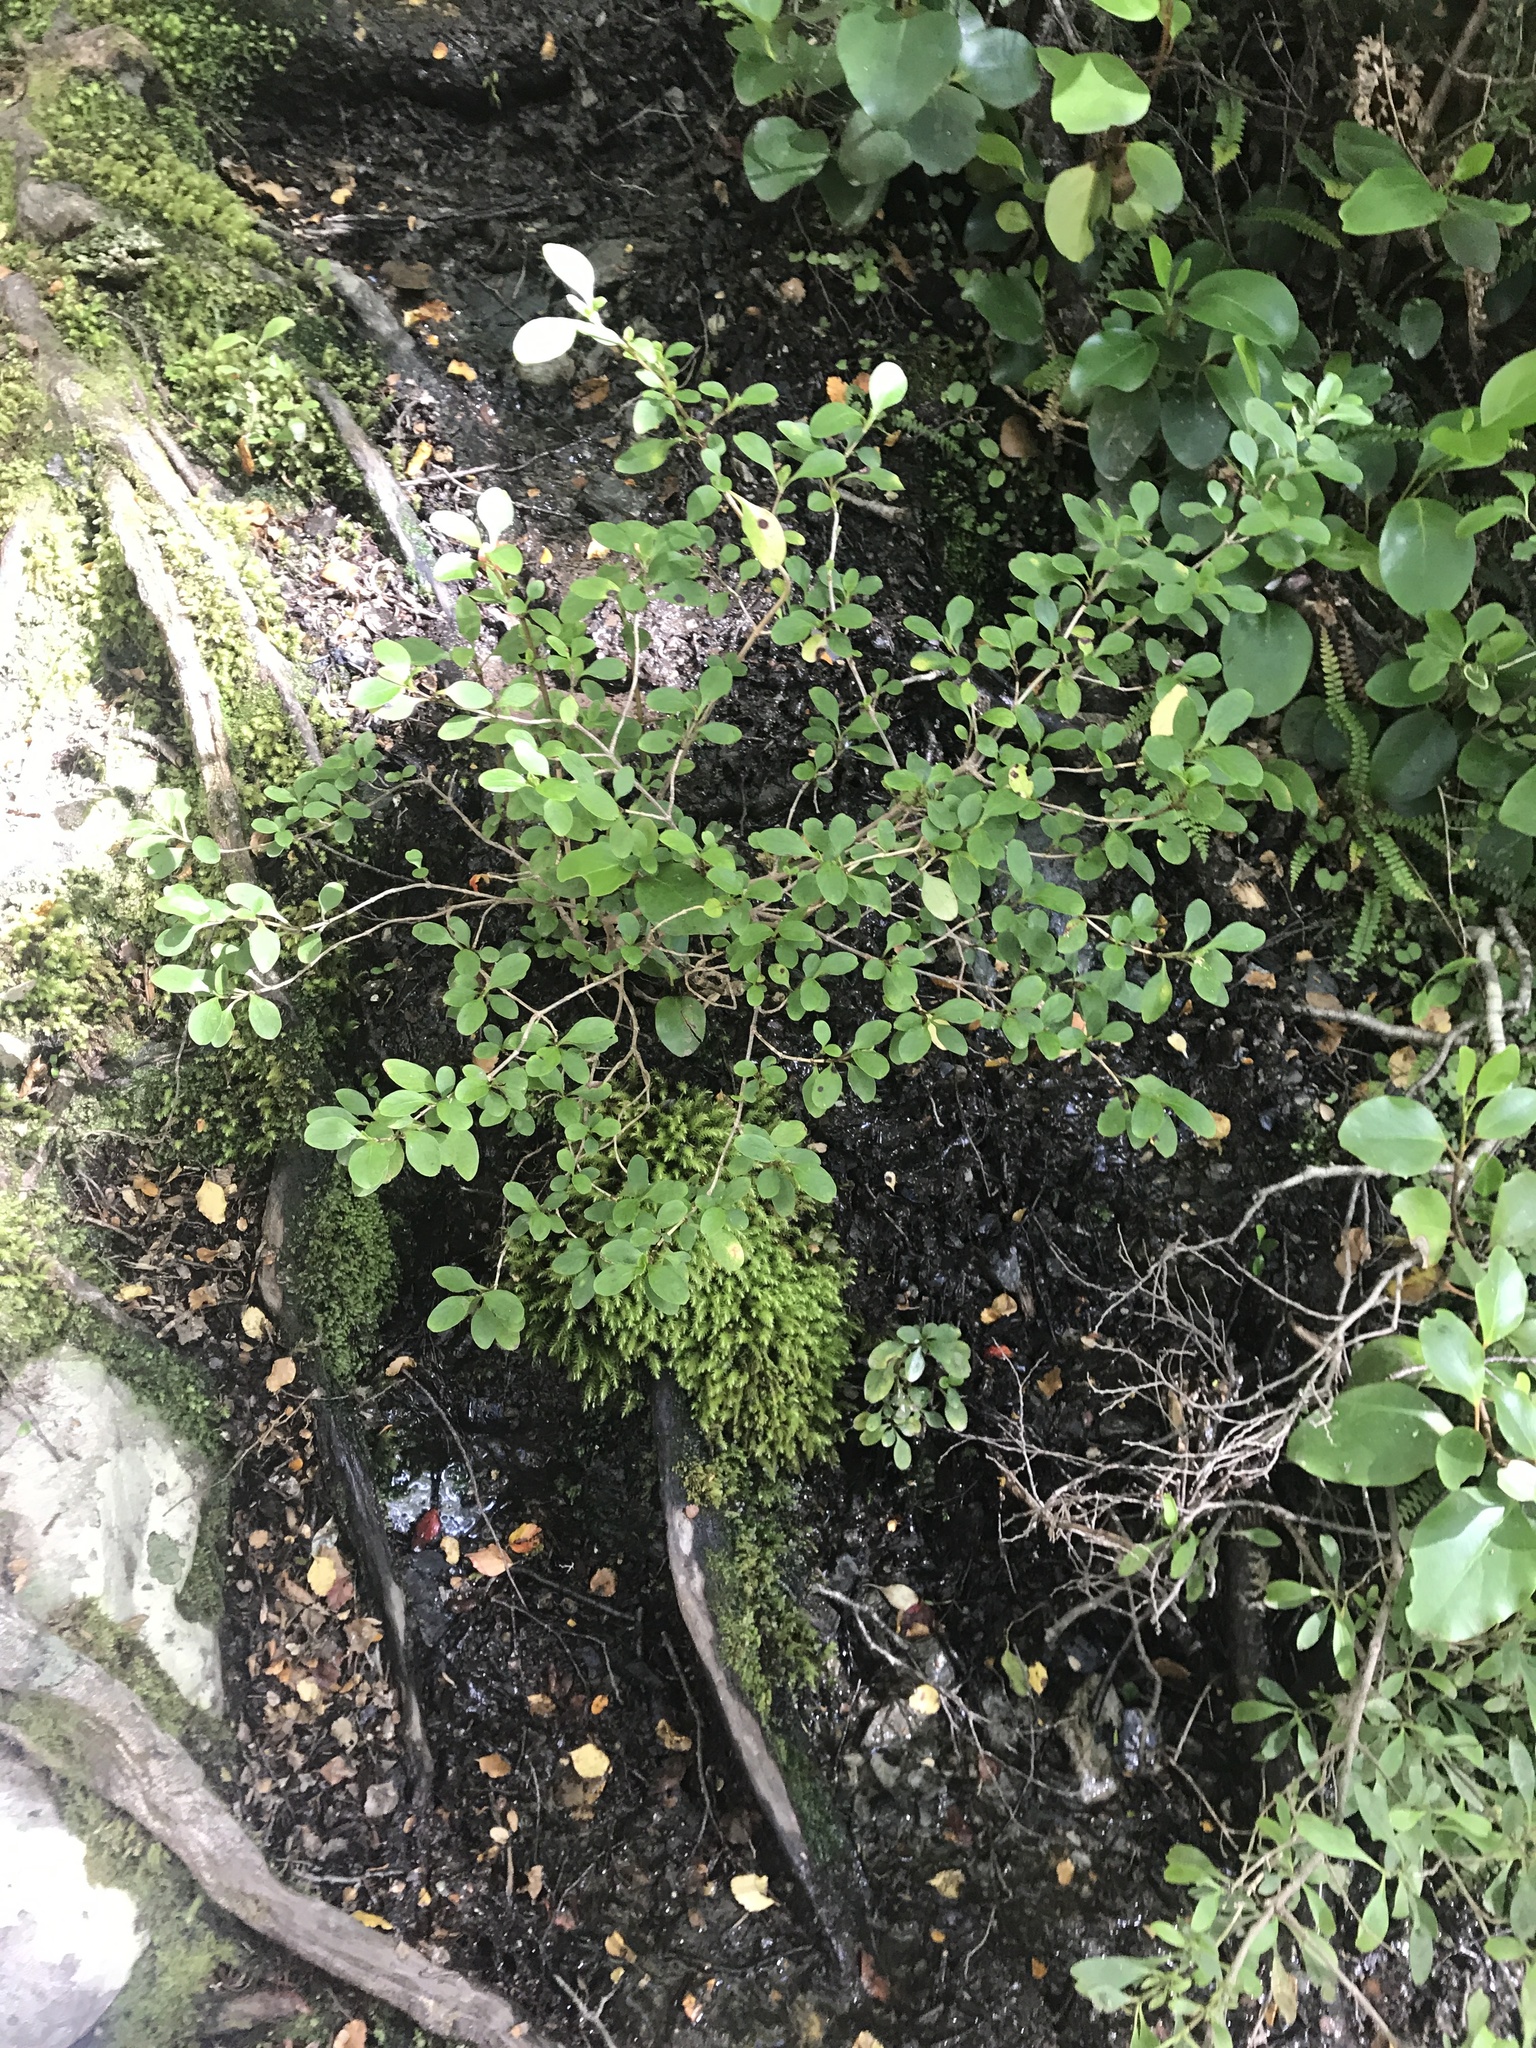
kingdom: Plantae
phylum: Tracheophyta
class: Magnoliopsida
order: Gentianales
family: Rubiaceae
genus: Coprosma
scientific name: Coprosma foetidissima
